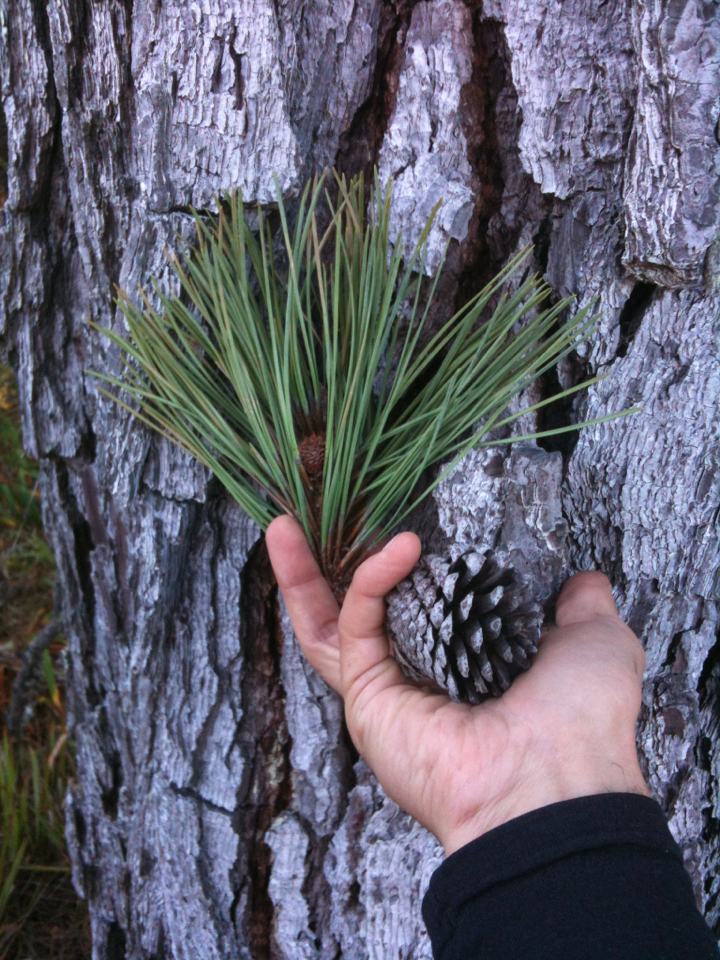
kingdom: Plantae
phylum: Tracheophyta
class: Pinopsida
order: Pinales
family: Pinaceae
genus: Pinus
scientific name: Pinus muricata
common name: Bishop pine
